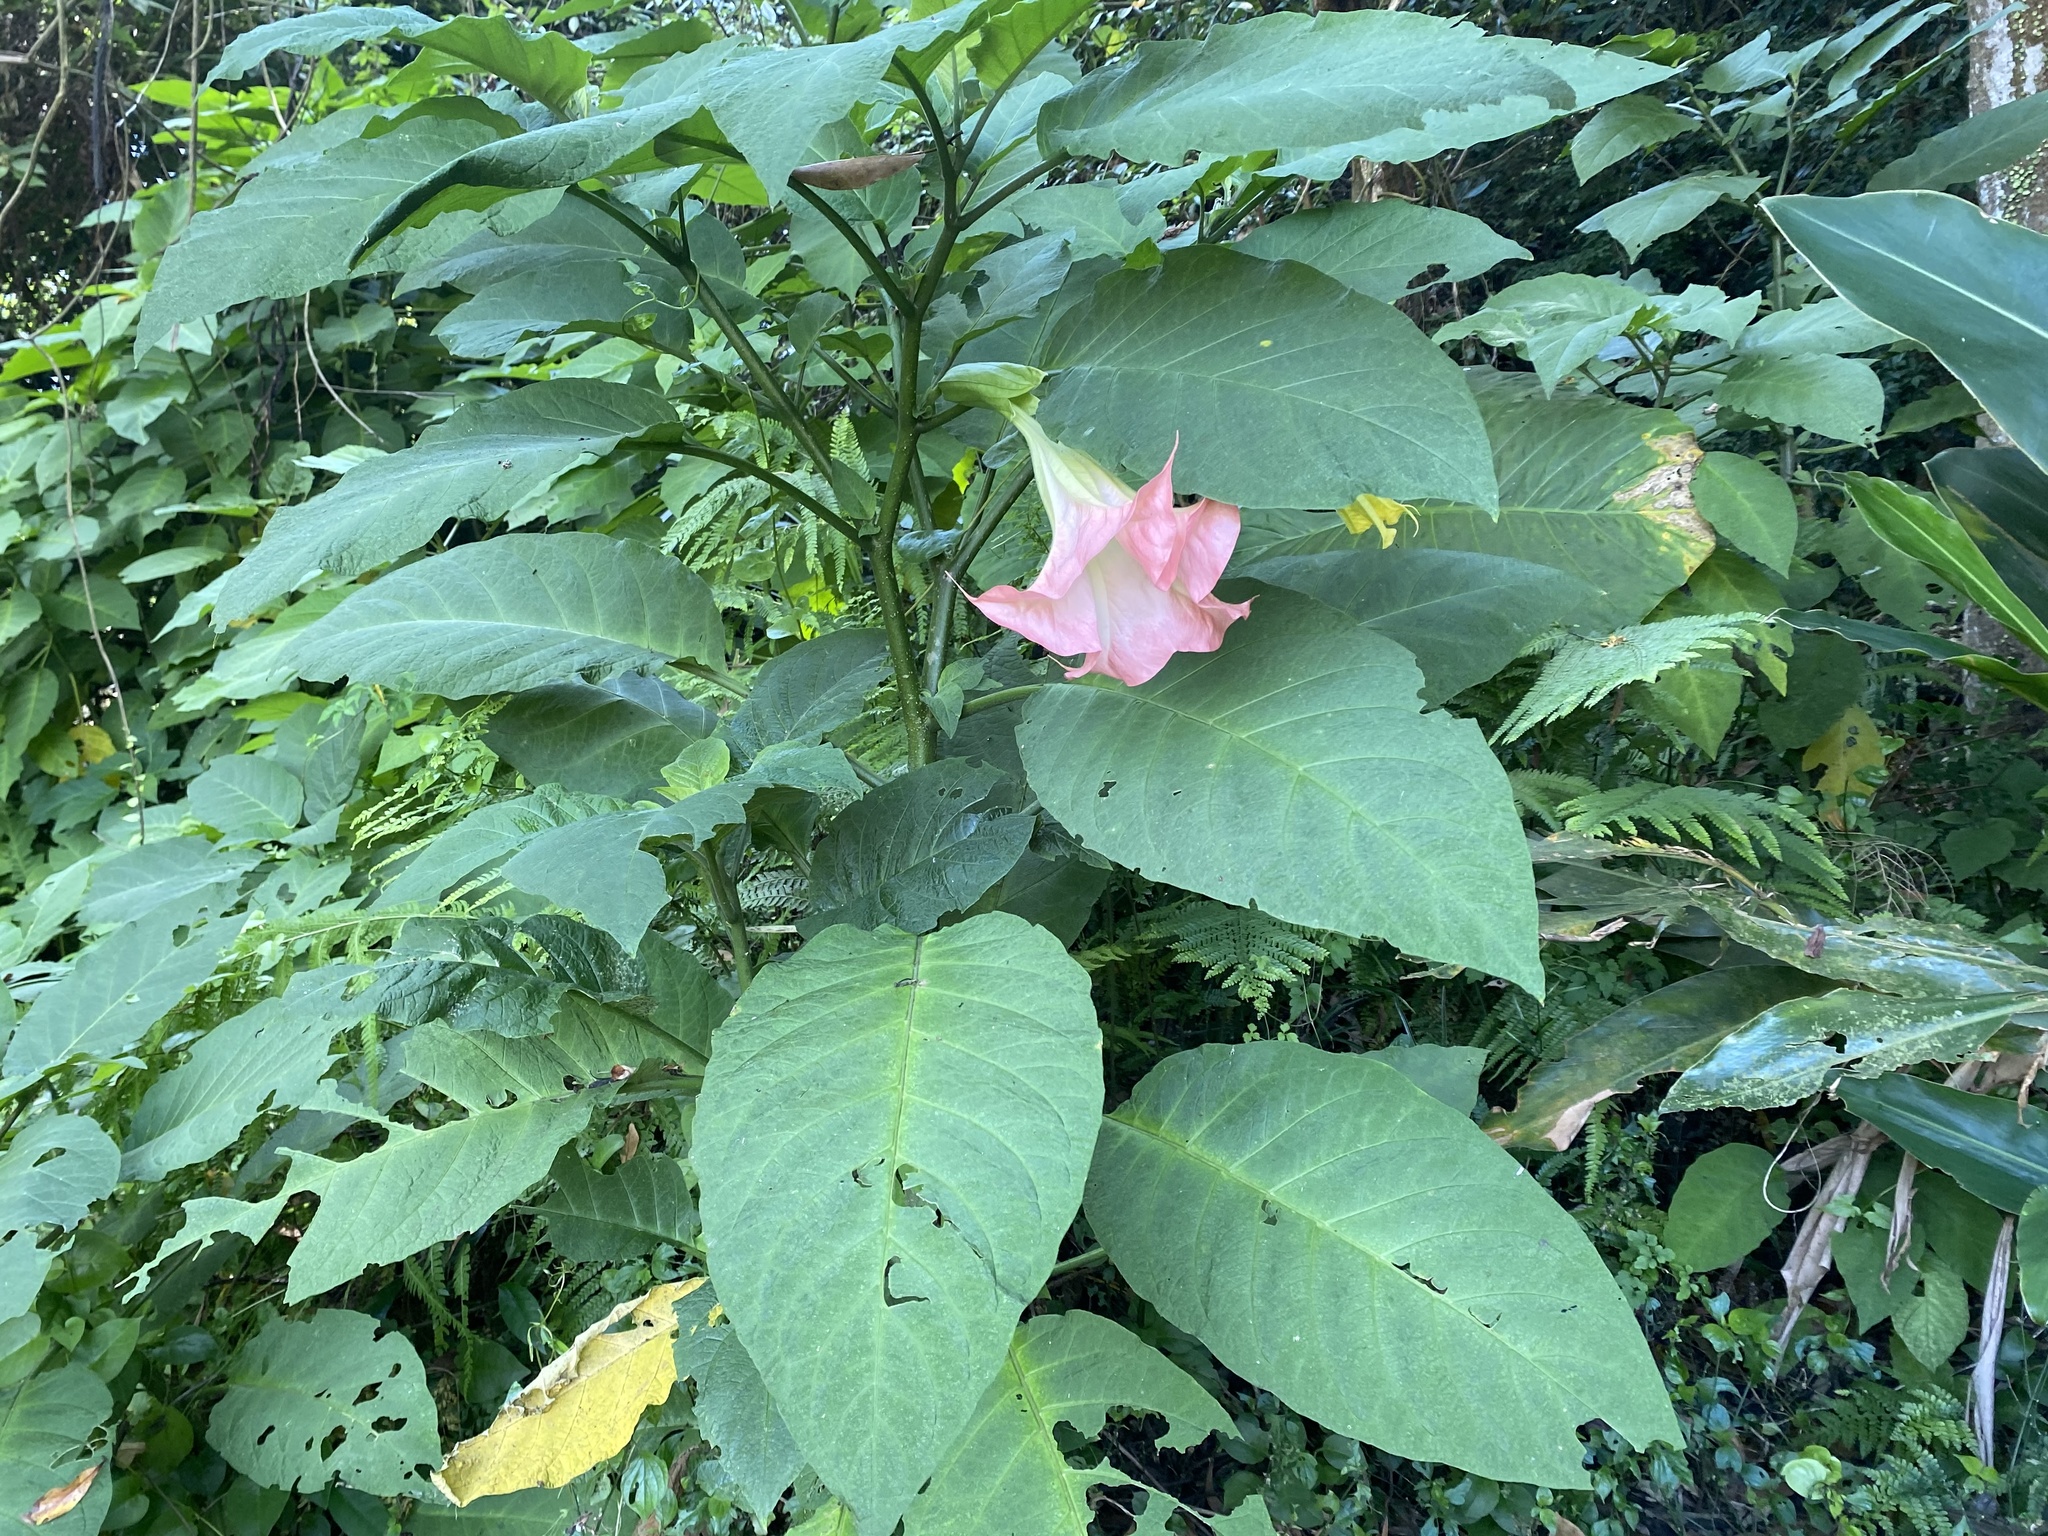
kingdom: Plantae
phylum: Tracheophyta
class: Magnoliopsida
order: Solanales
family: Solanaceae
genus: Brugmansia
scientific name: Brugmansia suaveolens
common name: Angel's tears
